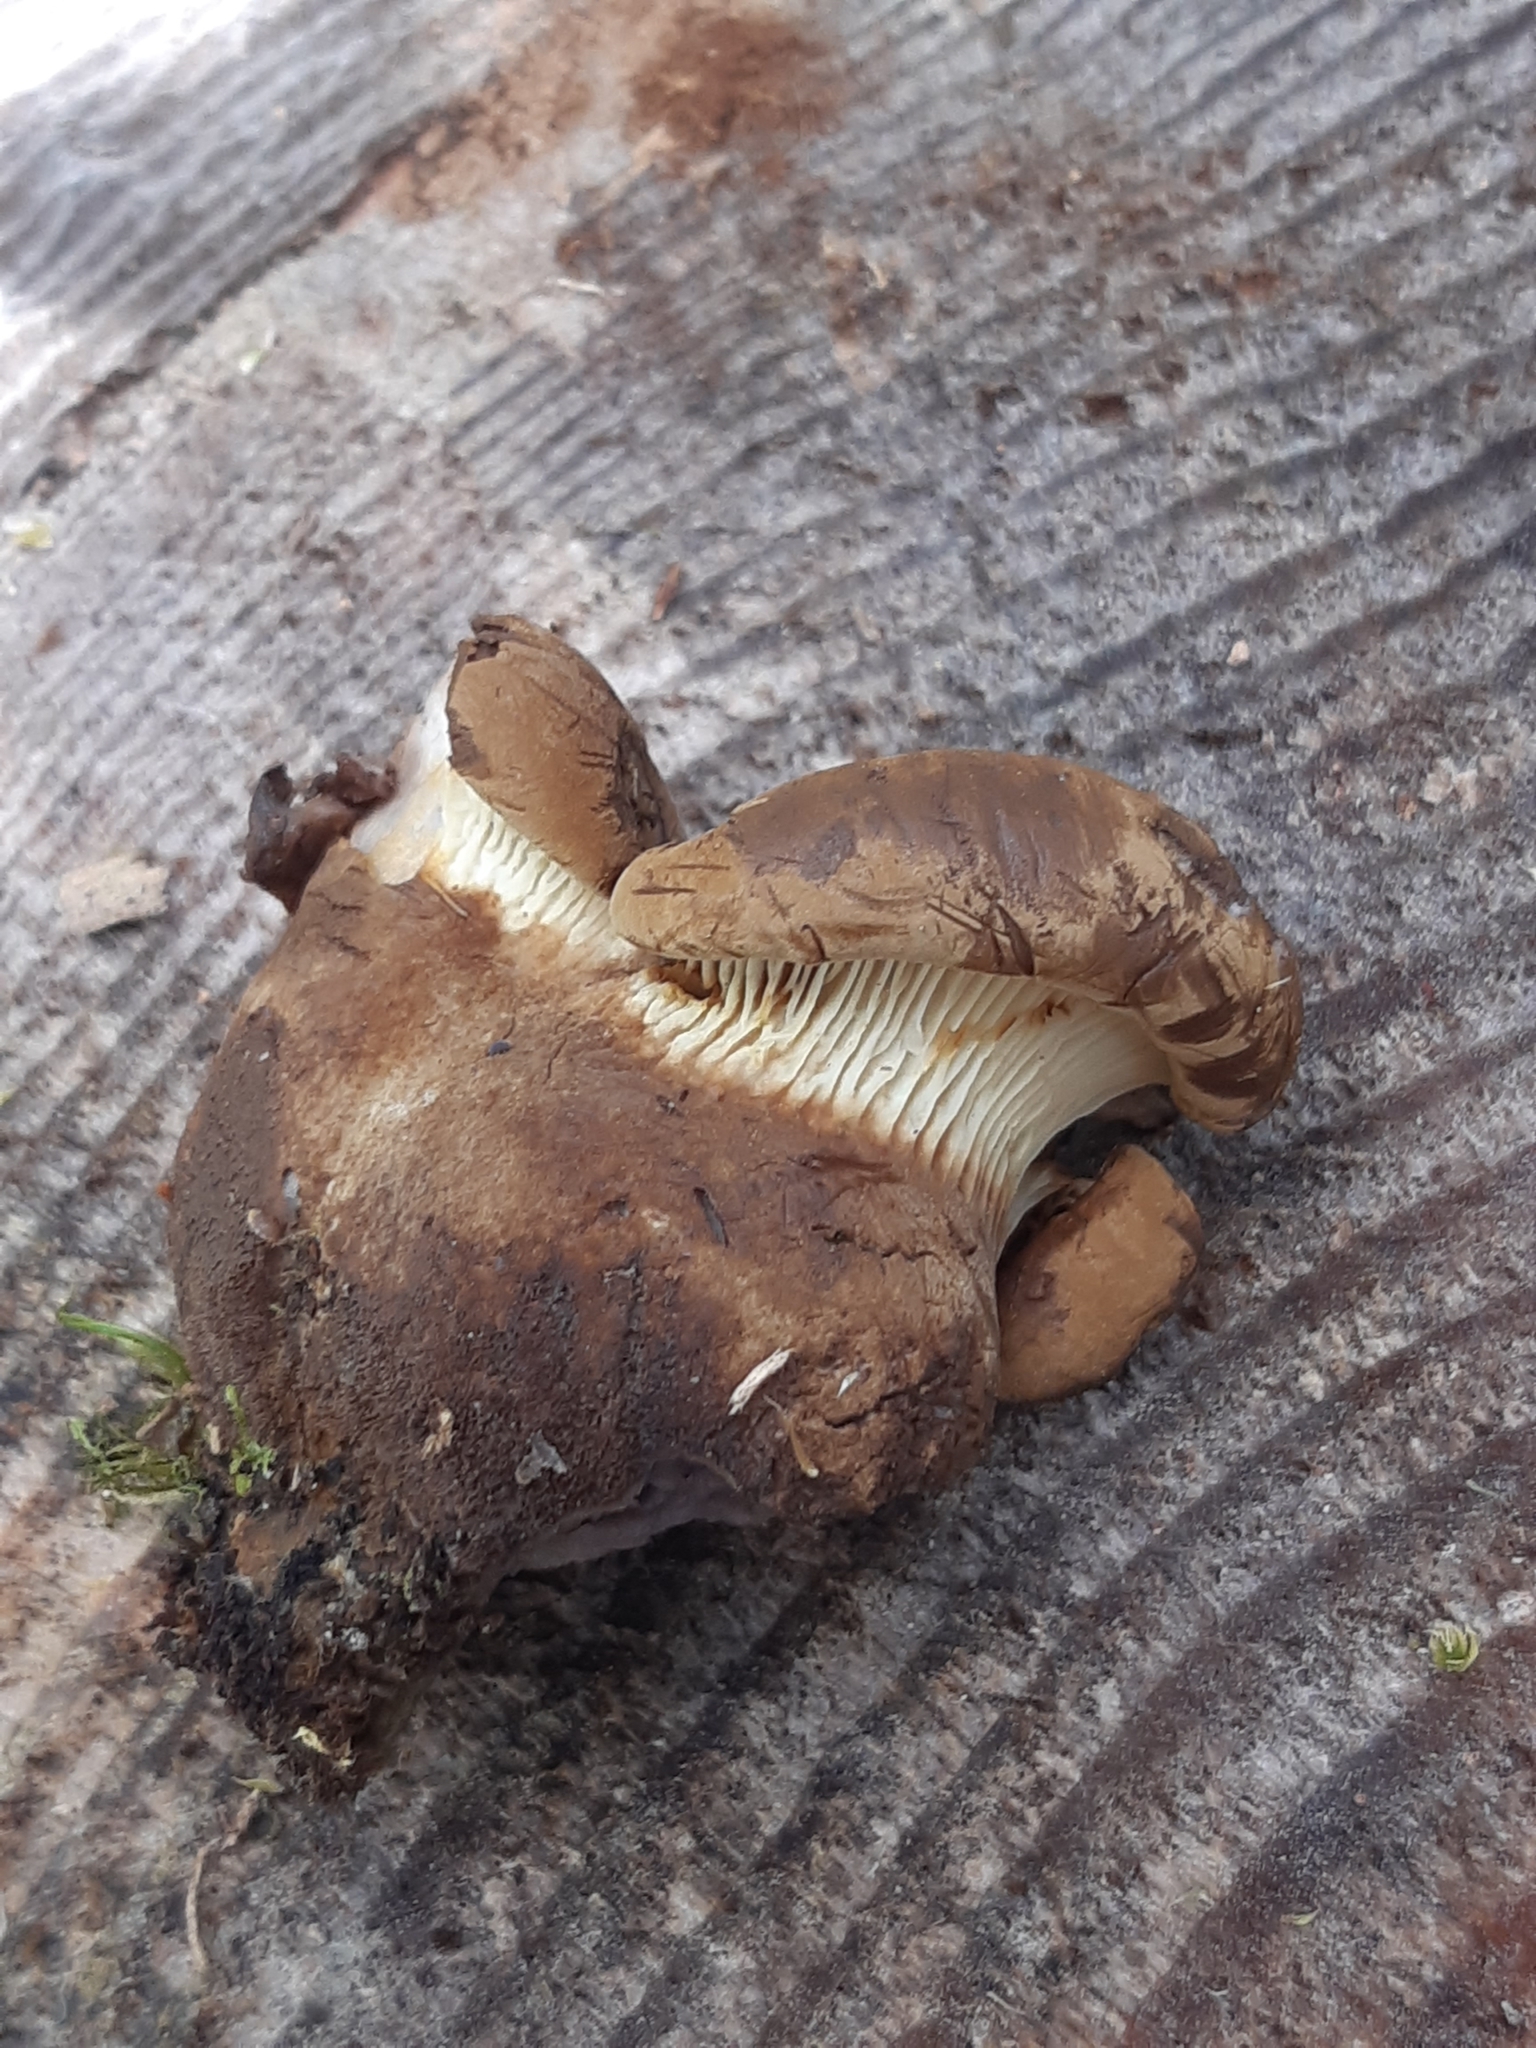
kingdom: Fungi
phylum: Basidiomycota
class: Agaricomycetes
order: Boletales
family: Tapinellaceae
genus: Tapinella
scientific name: Tapinella atrotomentosa
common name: Velvet rollrim
